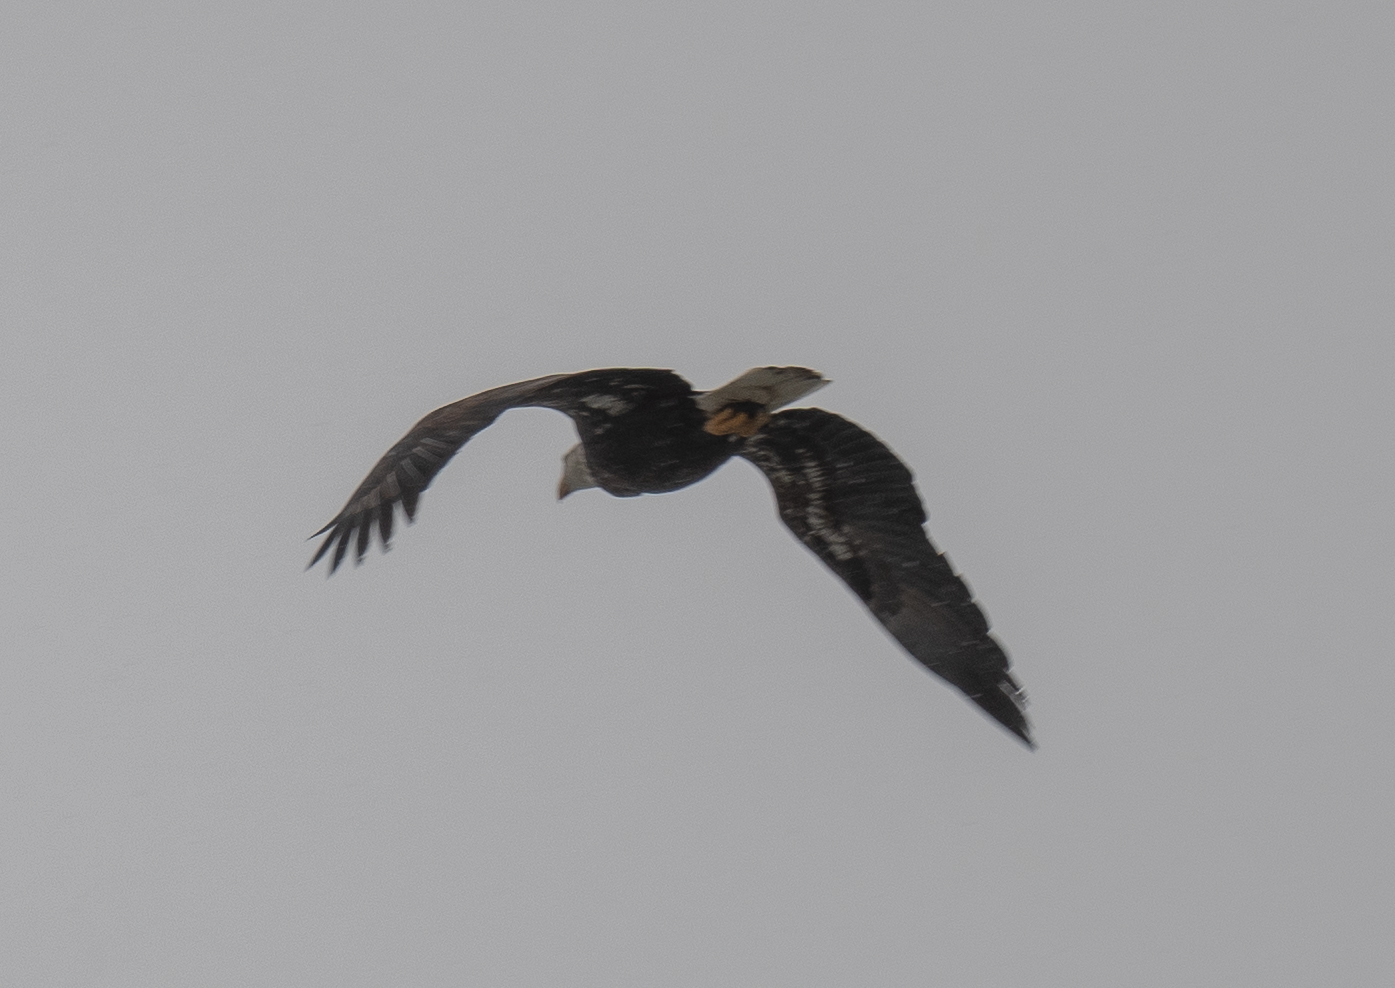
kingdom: Animalia
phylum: Chordata
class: Aves
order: Accipitriformes
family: Accipitridae
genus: Haliaeetus
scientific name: Haliaeetus leucocephalus
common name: Bald eagle
